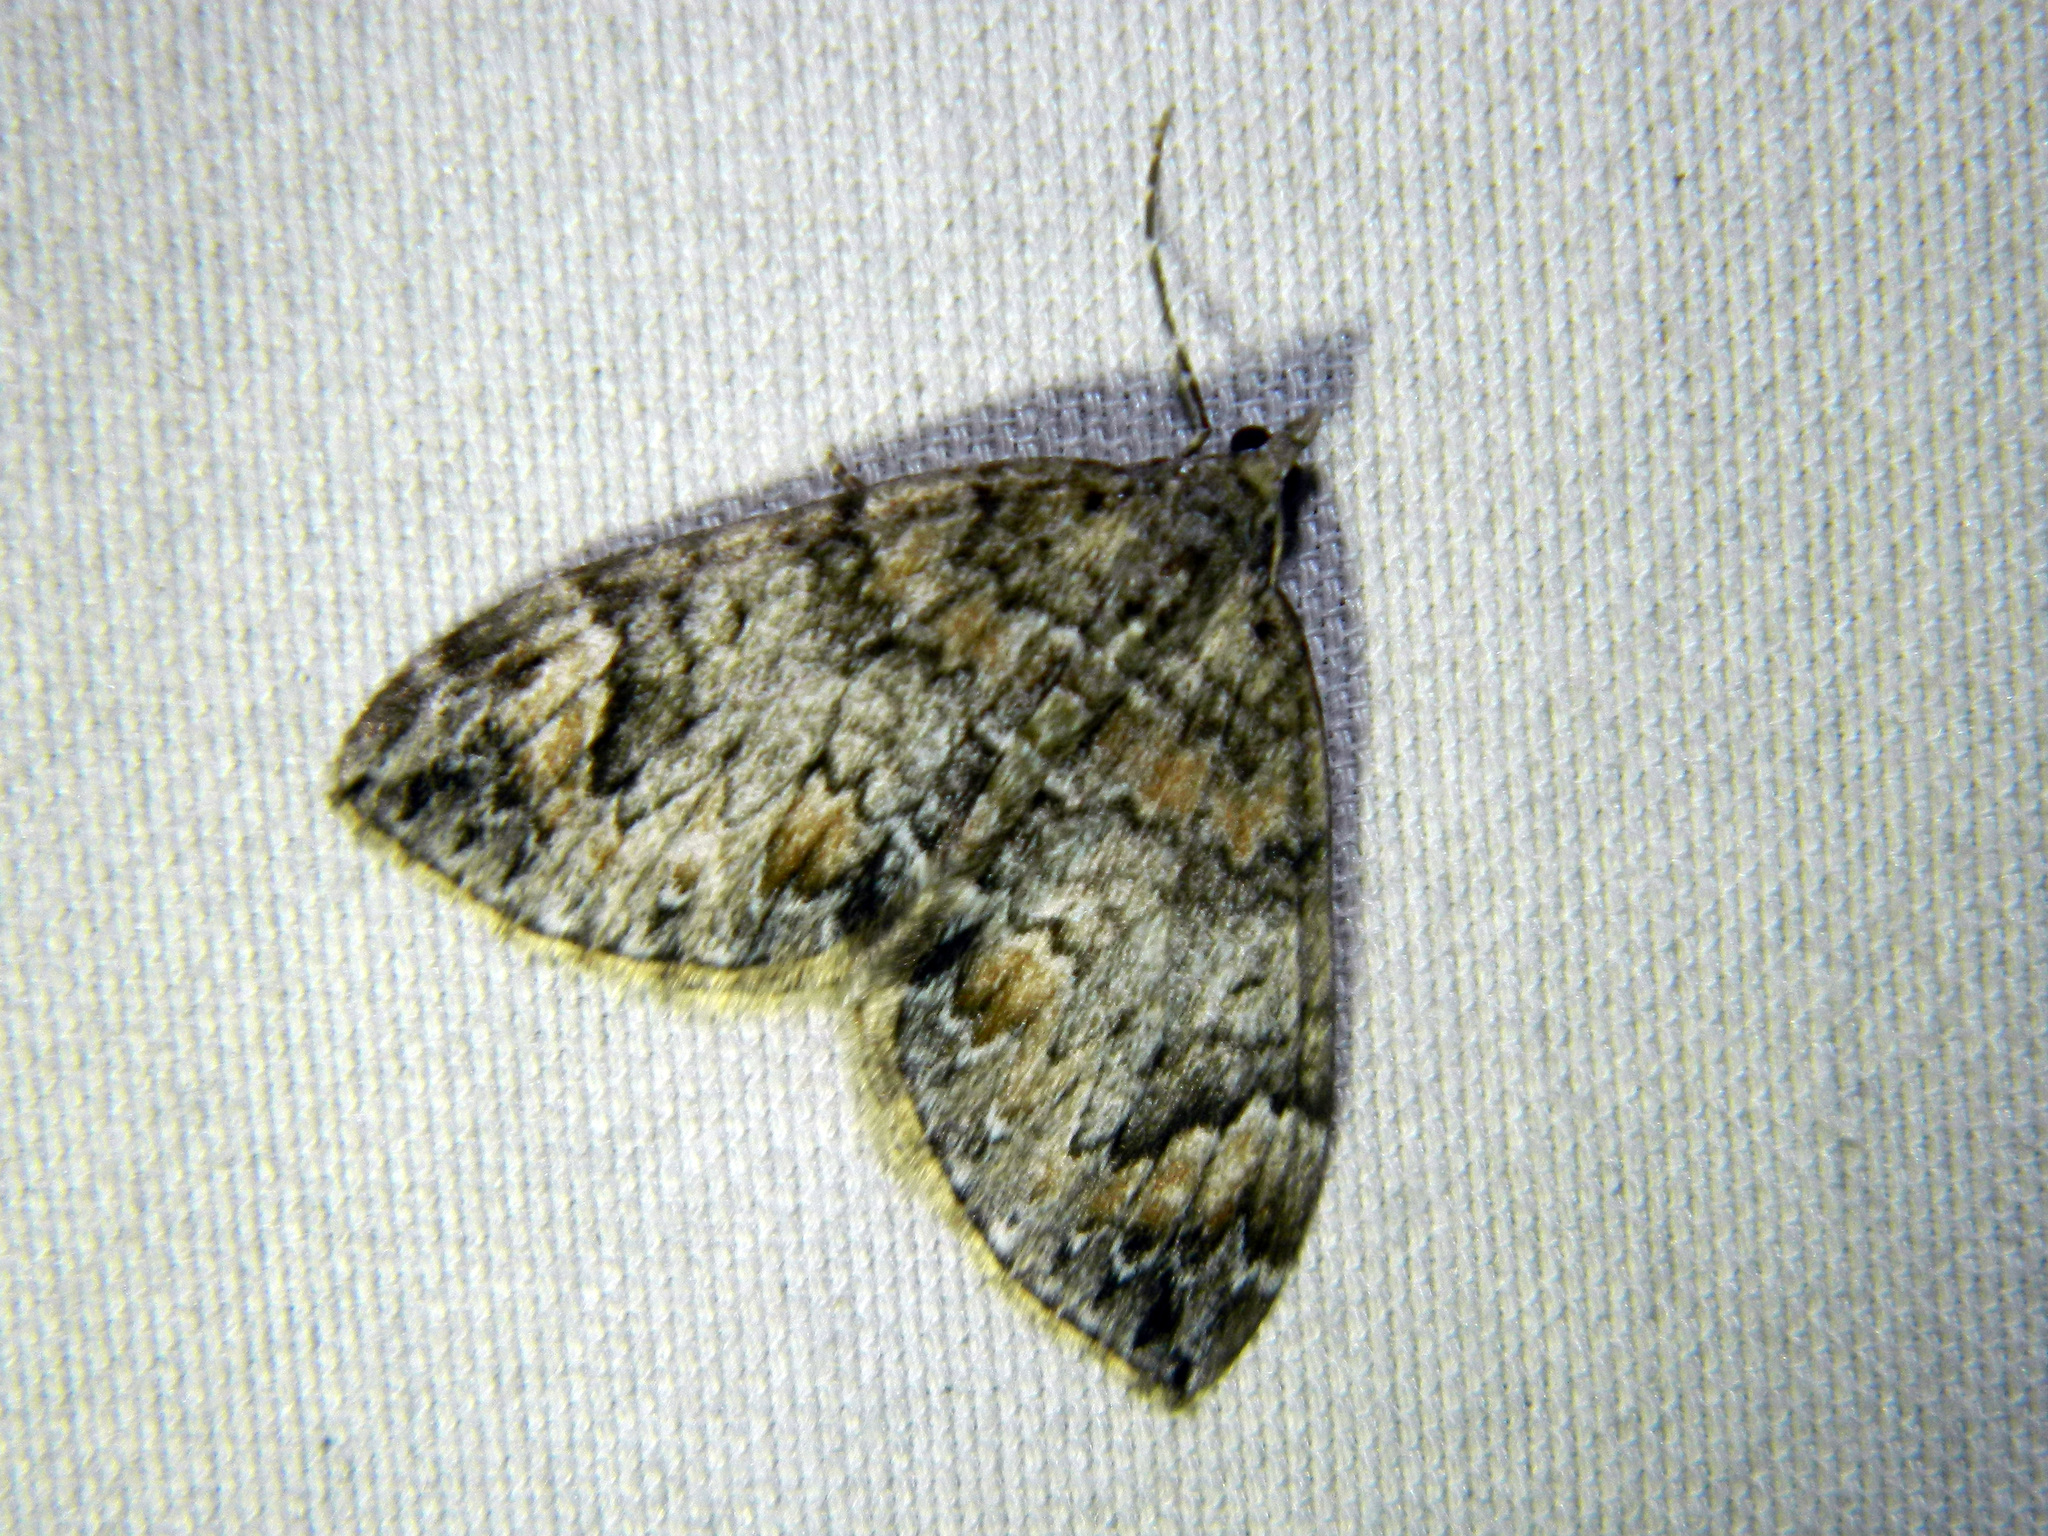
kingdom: Animalia
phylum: Arthropoda
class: Insecta
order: Lepidoptera
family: Geometridae
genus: Dysstroma
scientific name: Dysstroma citrata
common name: Dark marbled carpet
